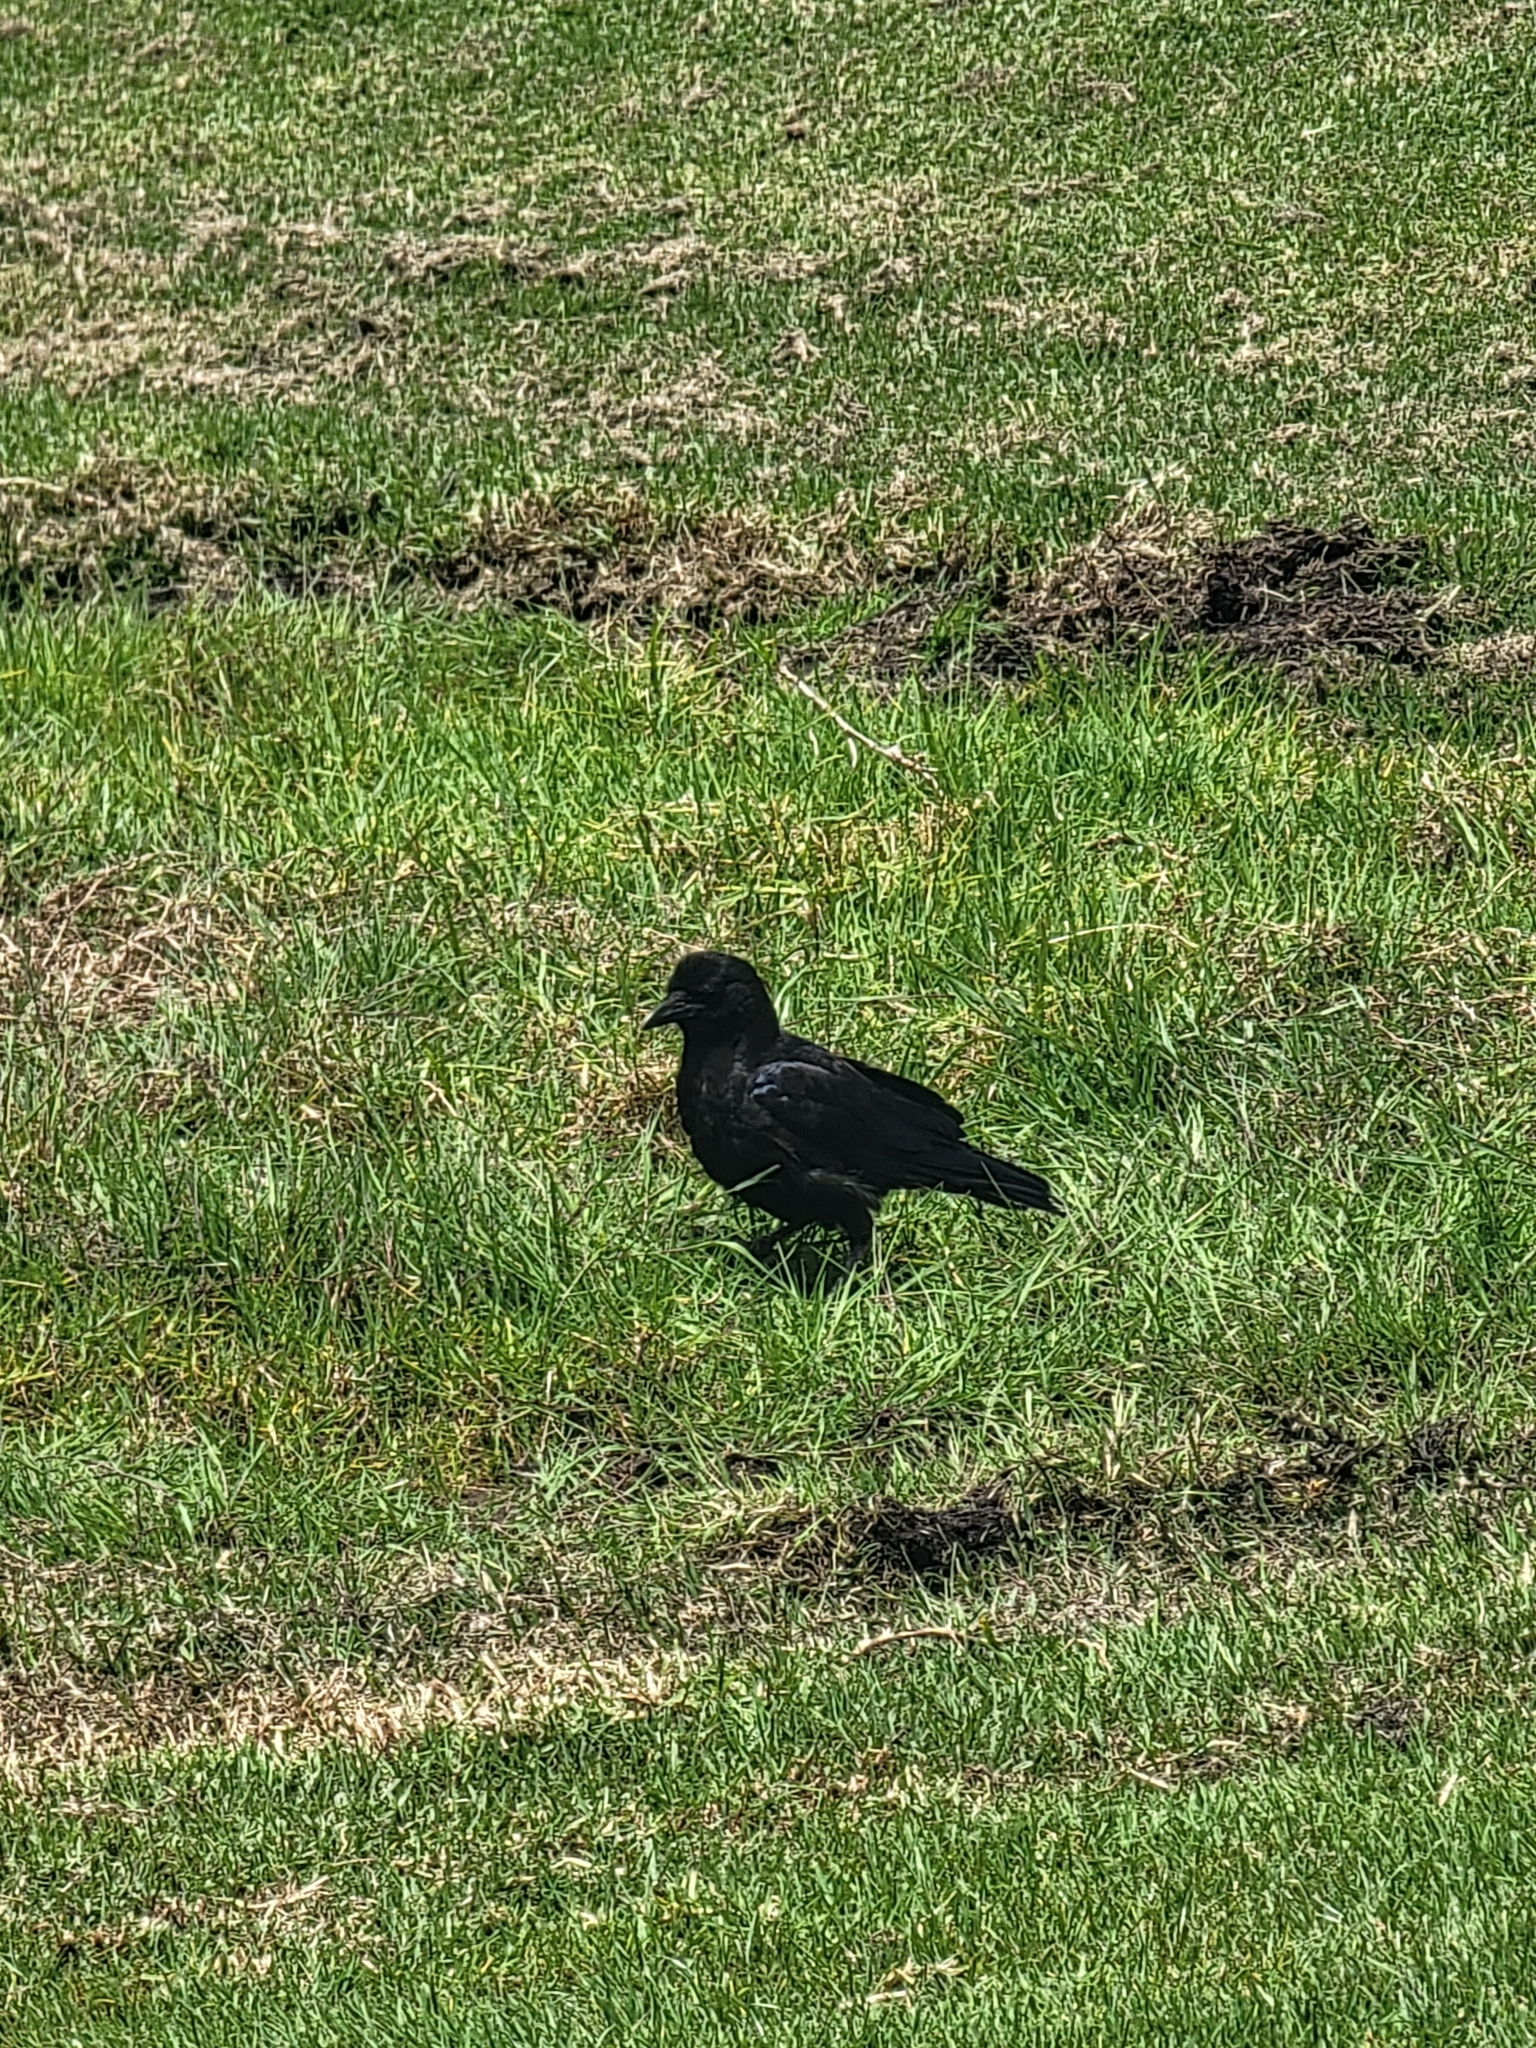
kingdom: Animalia
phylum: Chordata
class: Aves
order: Passeriformes
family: Corvidae
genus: Corvus
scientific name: Corvus brachyrhynchos
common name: American crow
